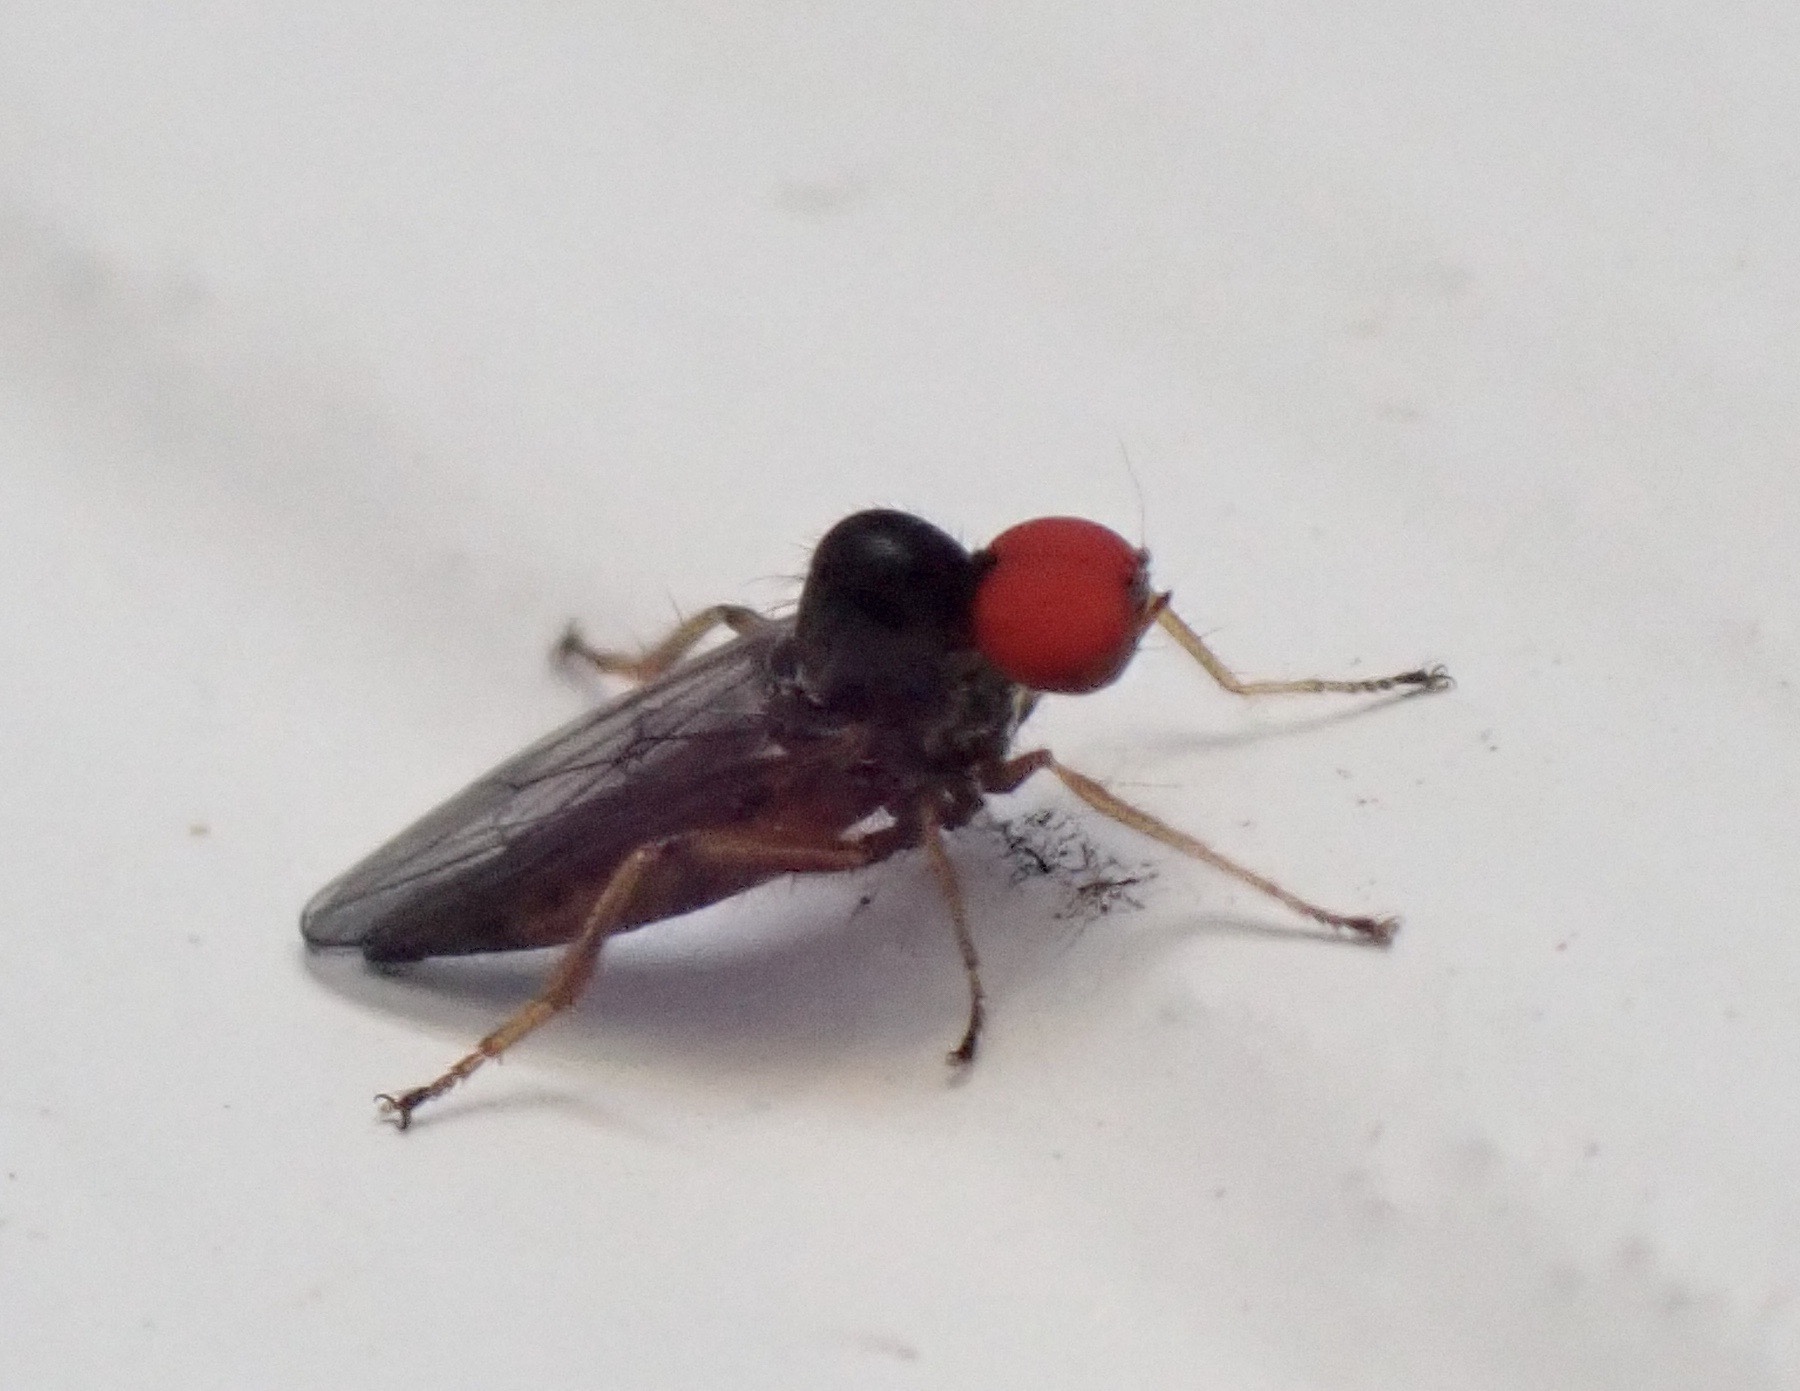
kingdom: Animalia
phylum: Arthropoda
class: Insecta
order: Diptera
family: Hybotidae
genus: Syneches
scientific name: Syneches hyalinus
